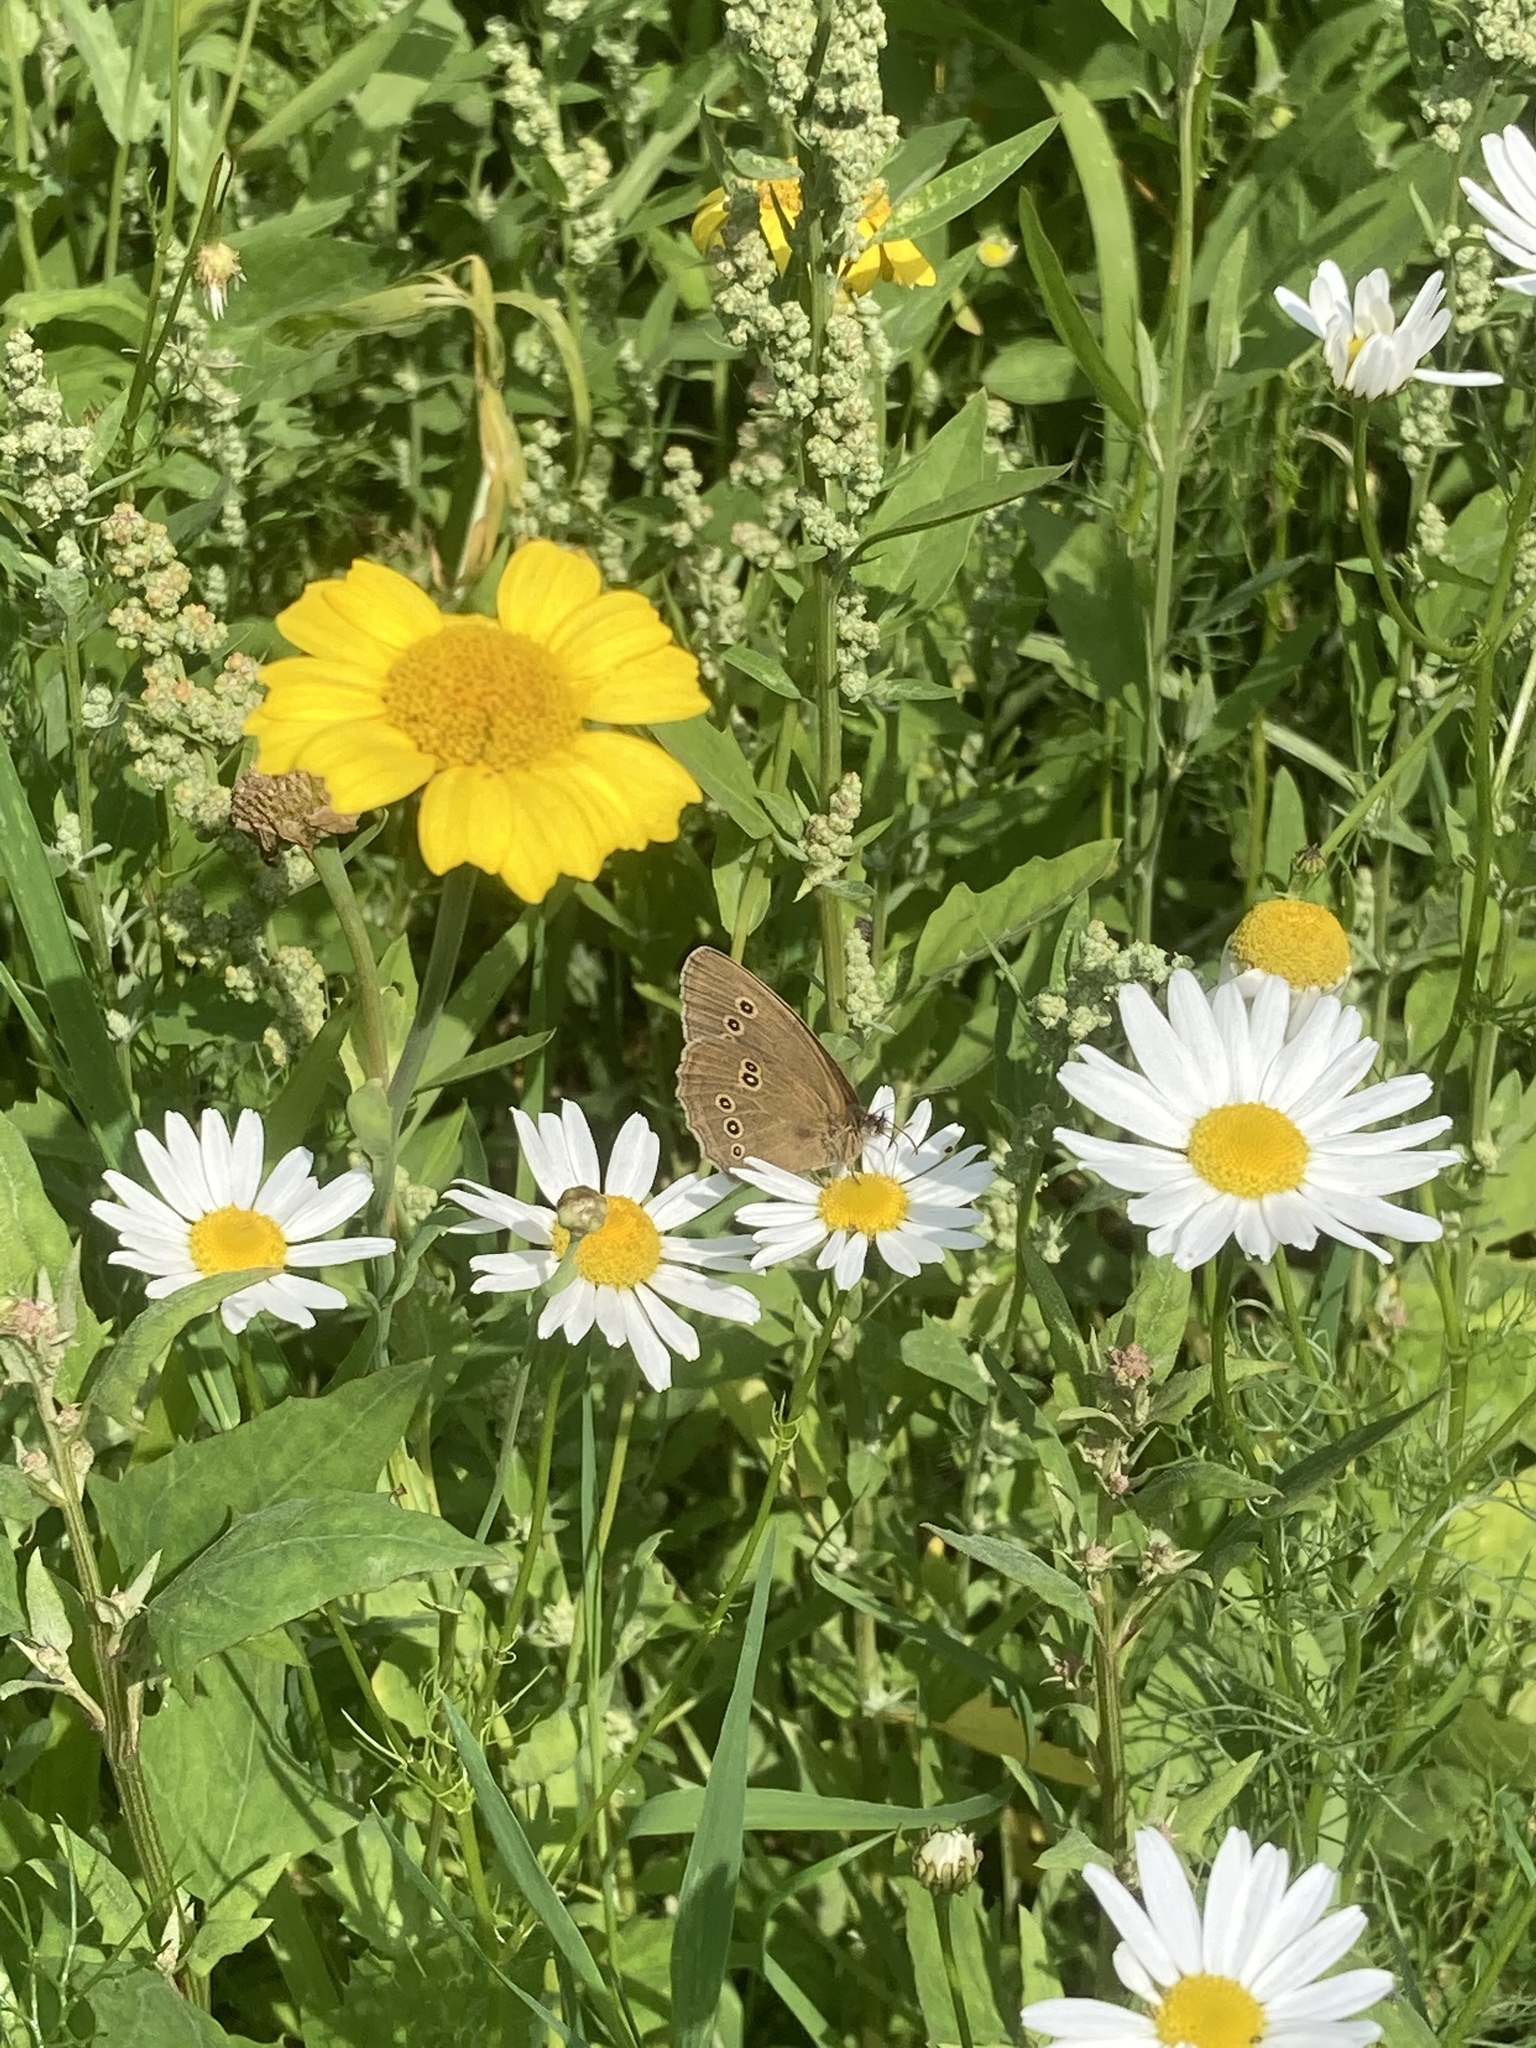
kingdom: Animalia
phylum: Arthropoda
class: Insecta
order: Lepidoptera
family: Nymphalidae
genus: Aphantopus
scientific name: Aphantopus hyperantus
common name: Ringlet
